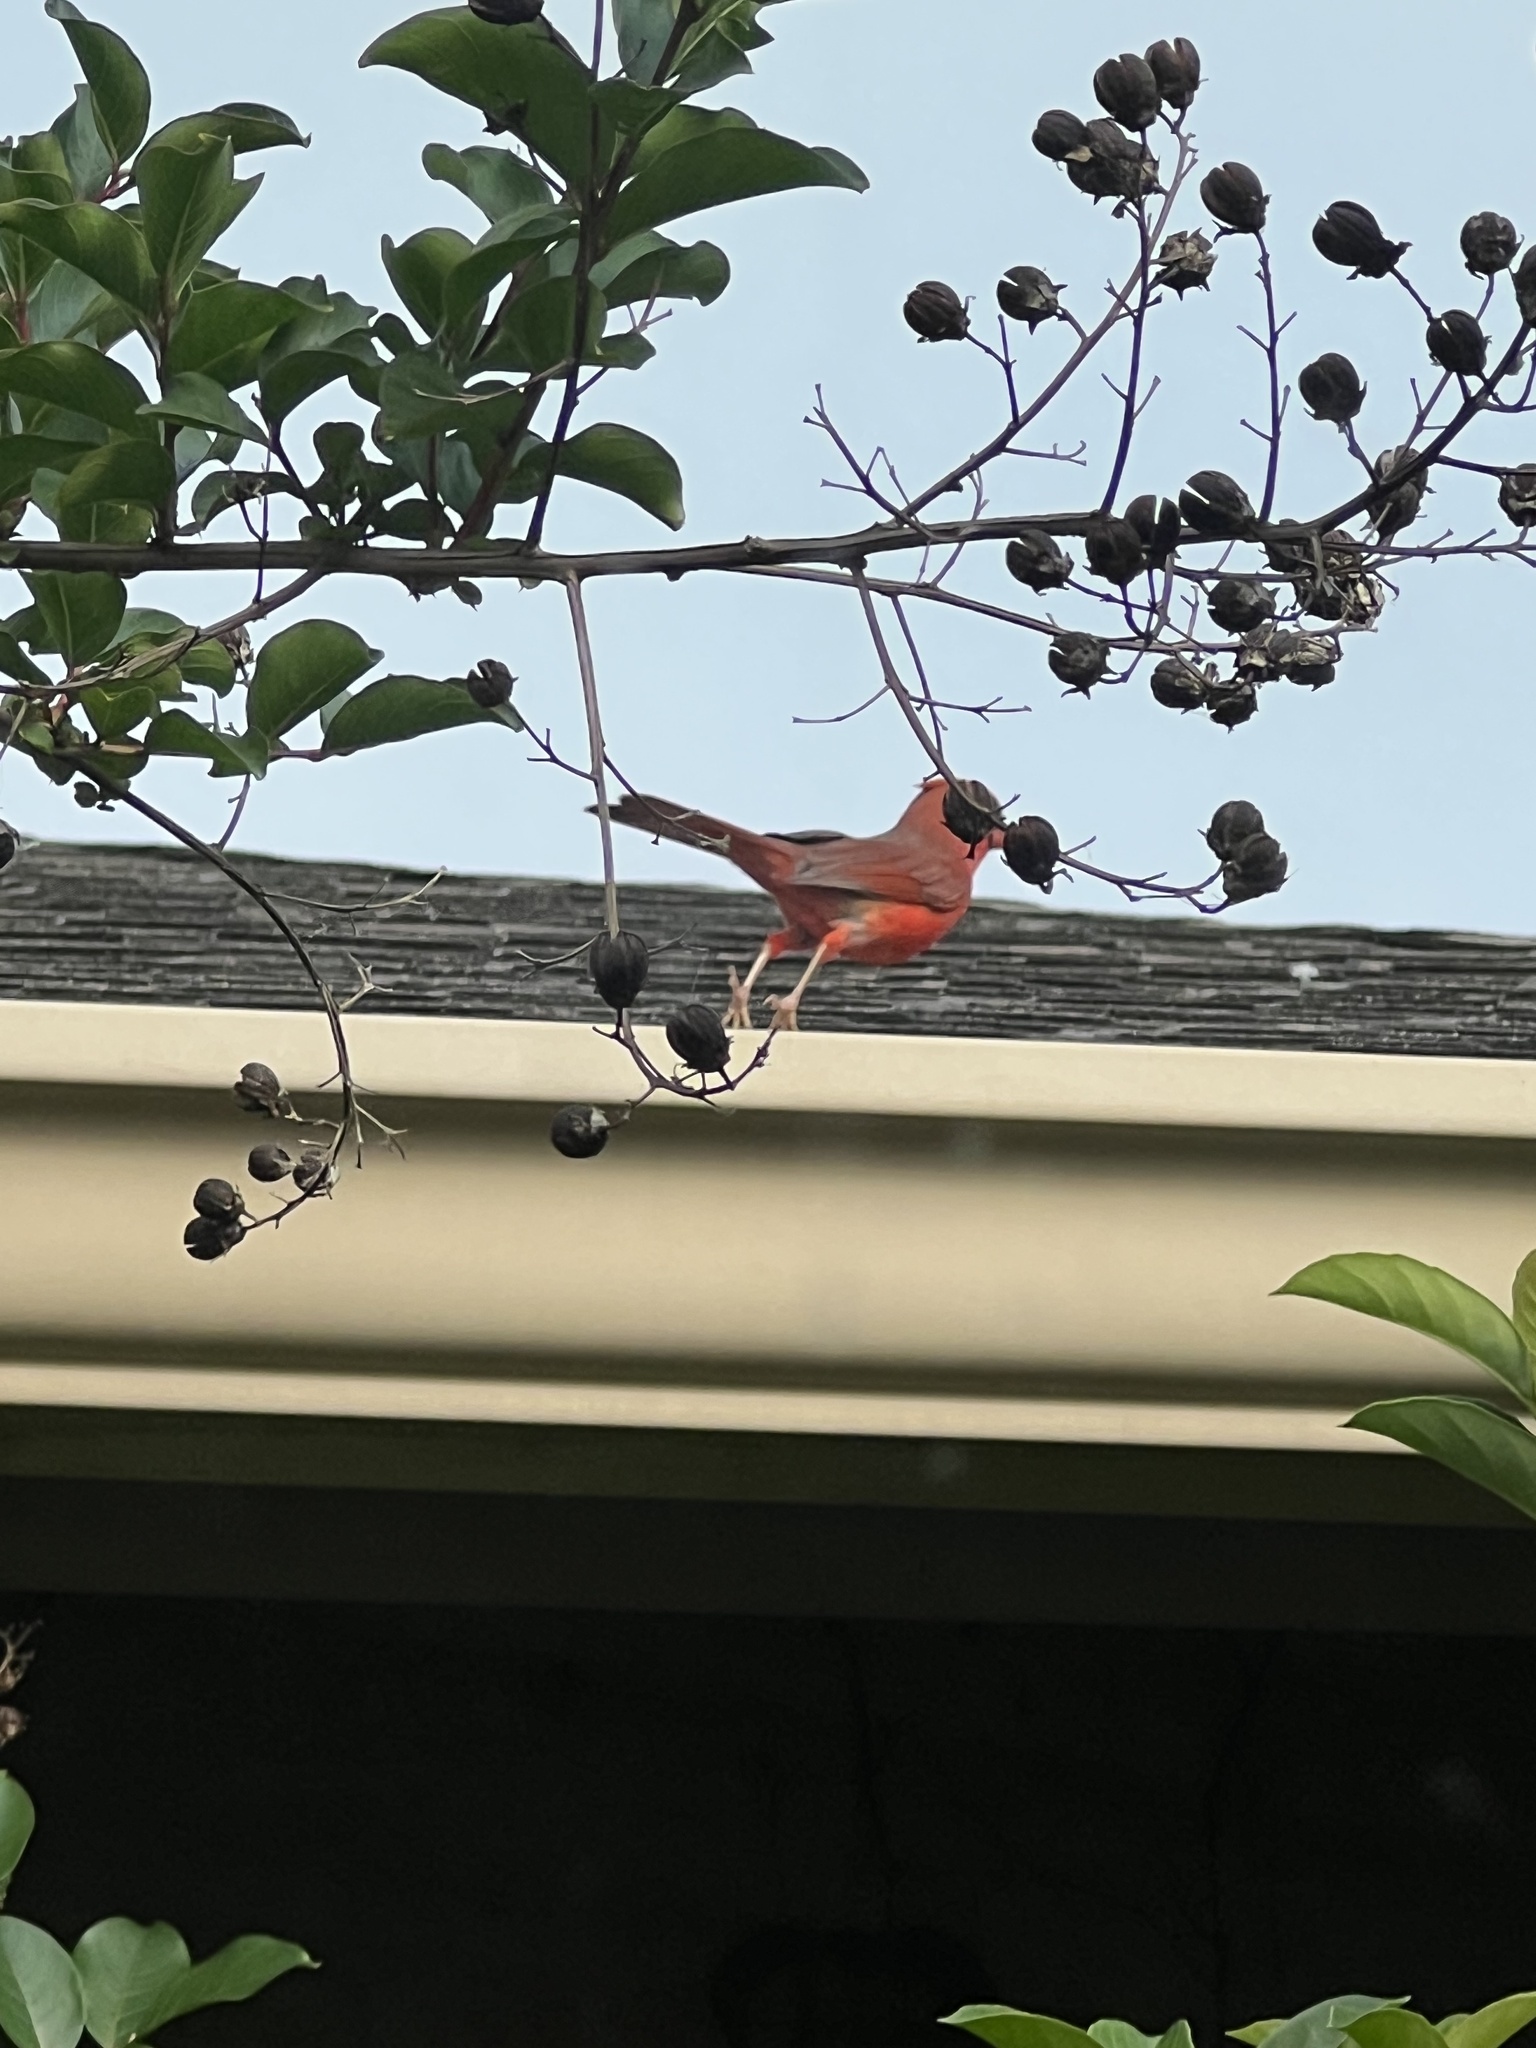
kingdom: Animalia
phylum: Chordata
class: Aves
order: Passeriformes
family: Cardinalidae
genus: Cardinalis
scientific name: Cardinalis cardinalis
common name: Northern cardinal
